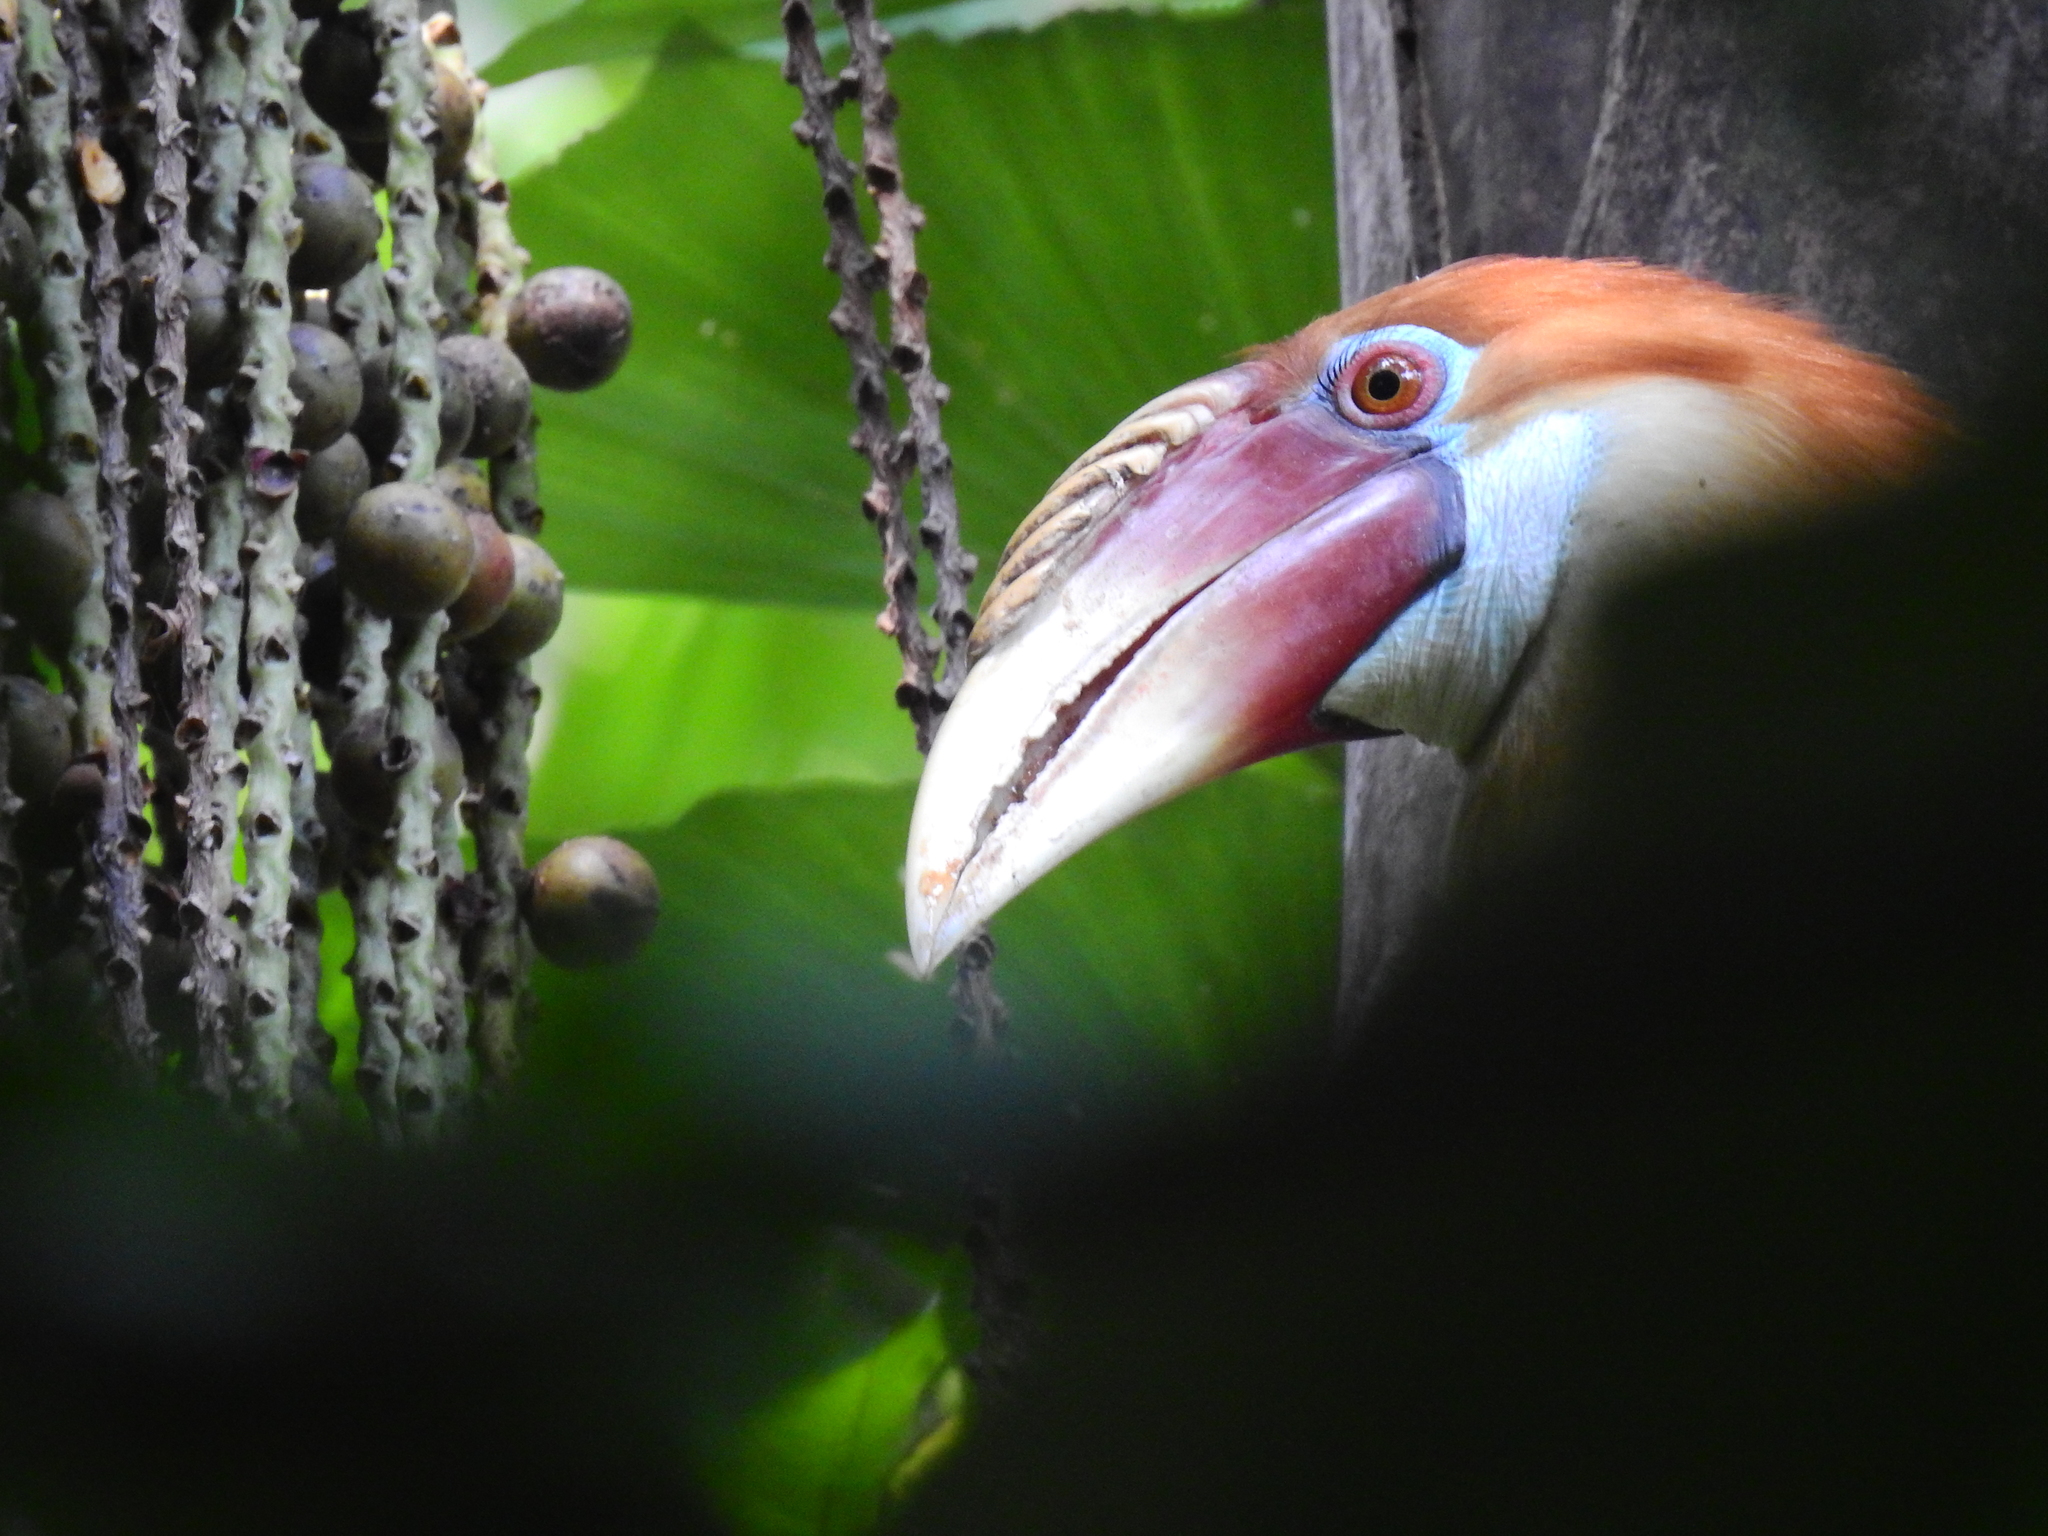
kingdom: Animalia
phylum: Chordata
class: Aves
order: Bucerotiformes
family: Bucerotidae
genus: Rhyticeros
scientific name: Rhyticeros narcondami
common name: Narcondam hornbill
